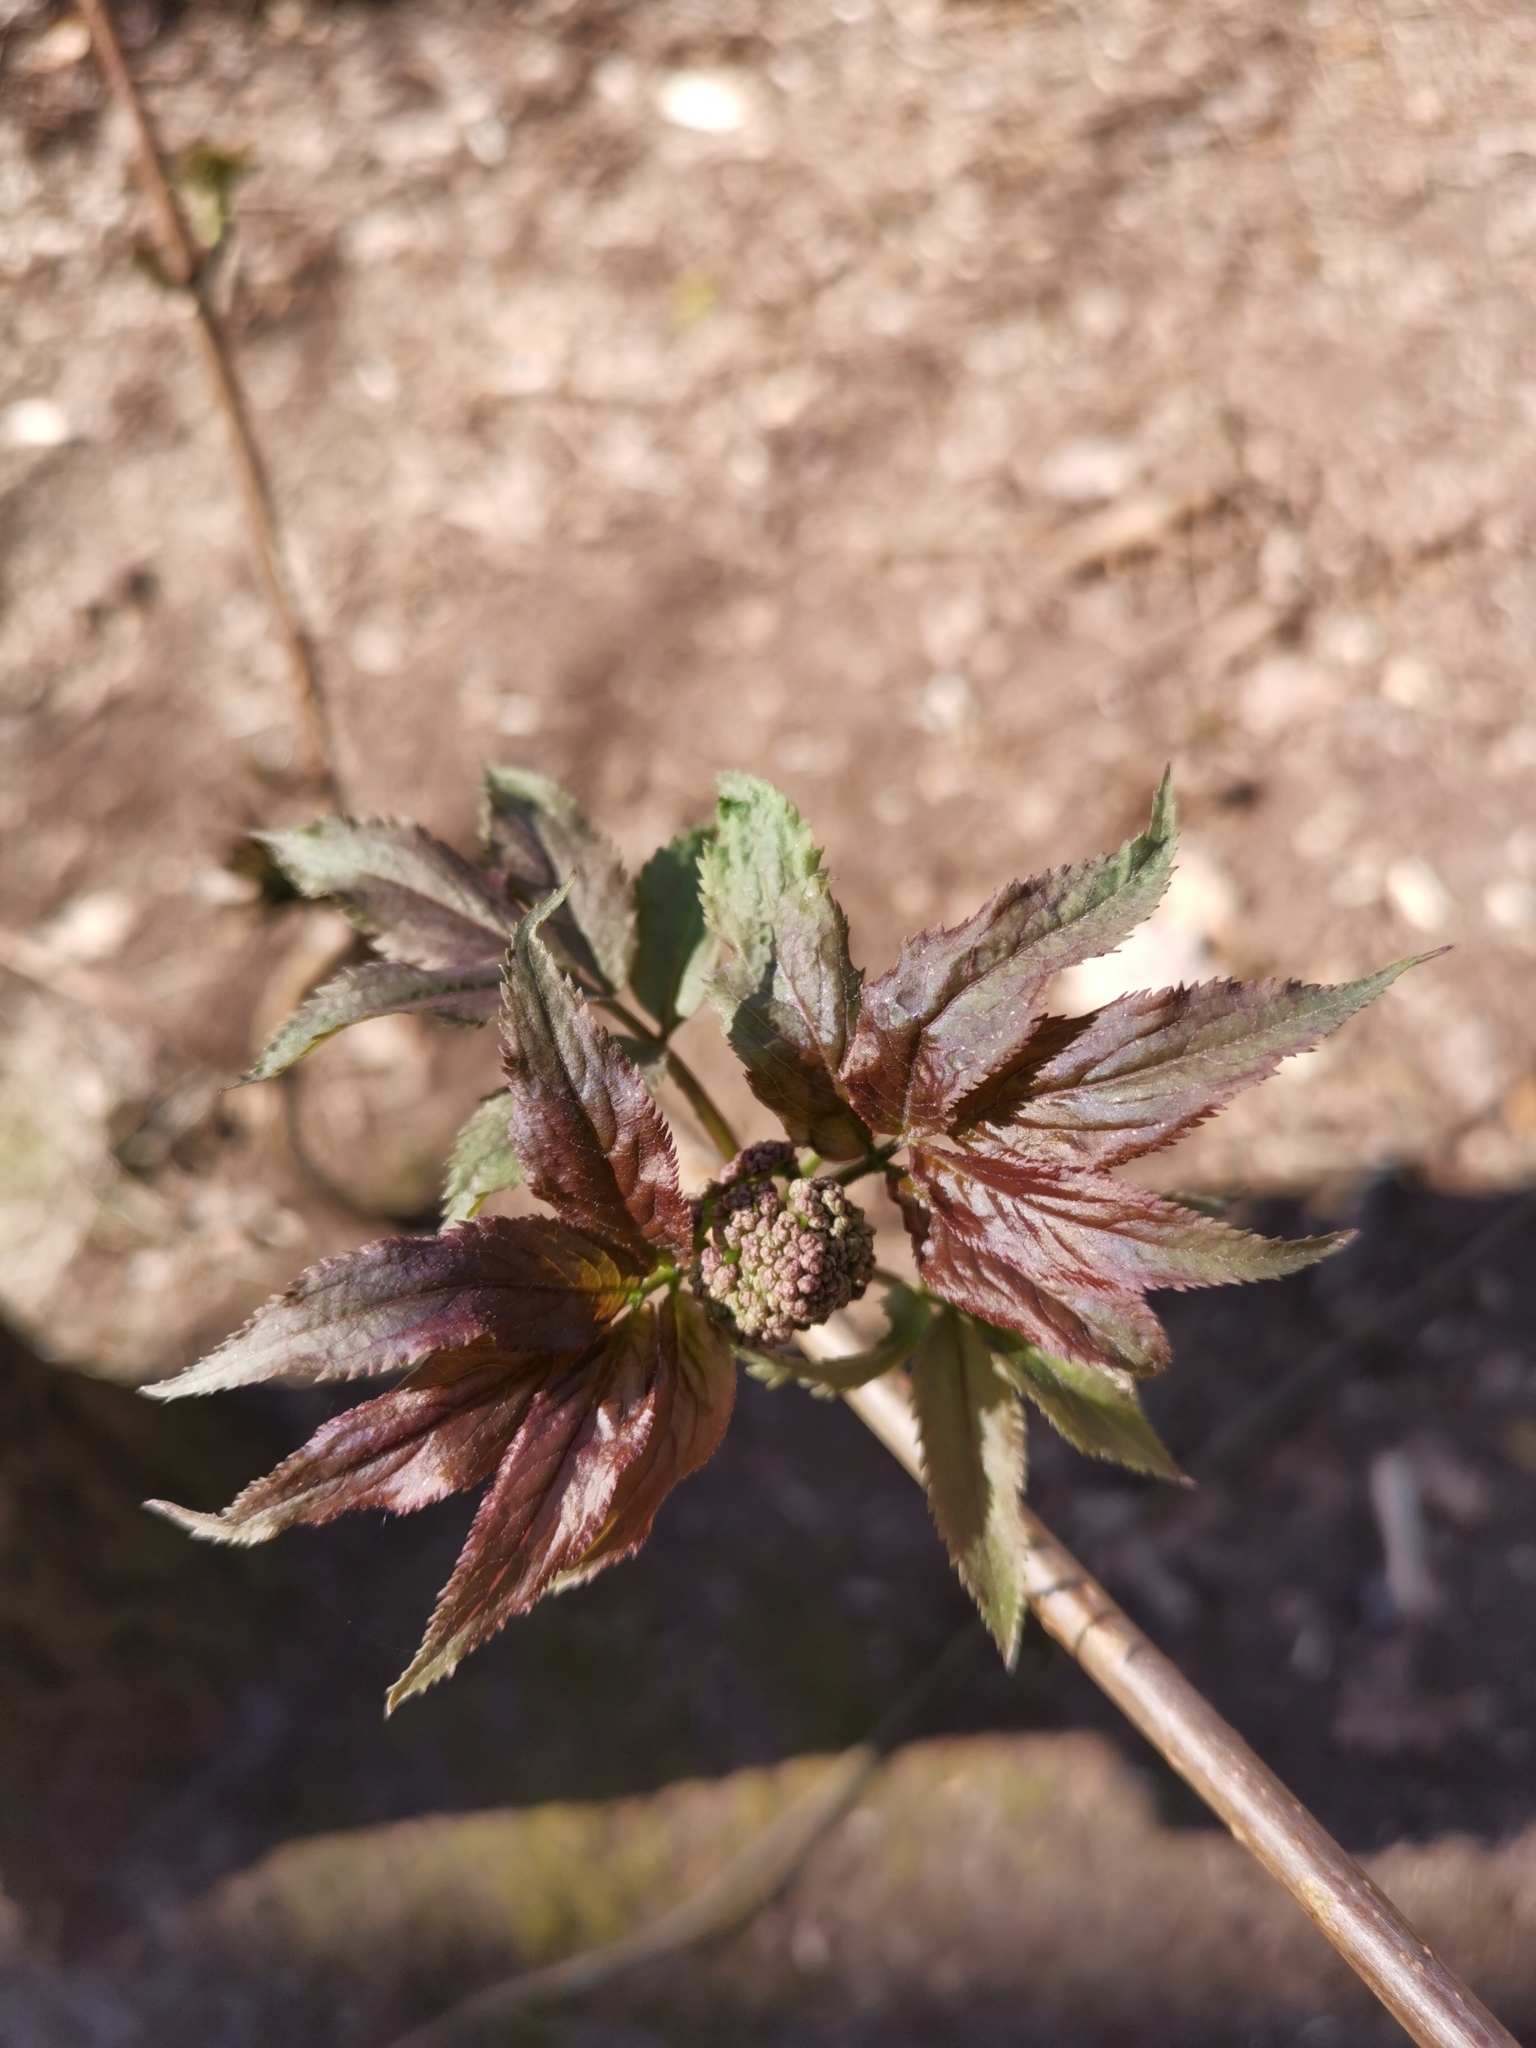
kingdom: Plantae
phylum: Tracheophyta
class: Magnoliopsida
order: Dipsacales
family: Viburnaceae
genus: Sambucus
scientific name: Sambucus racemosa
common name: Red-berried elder
